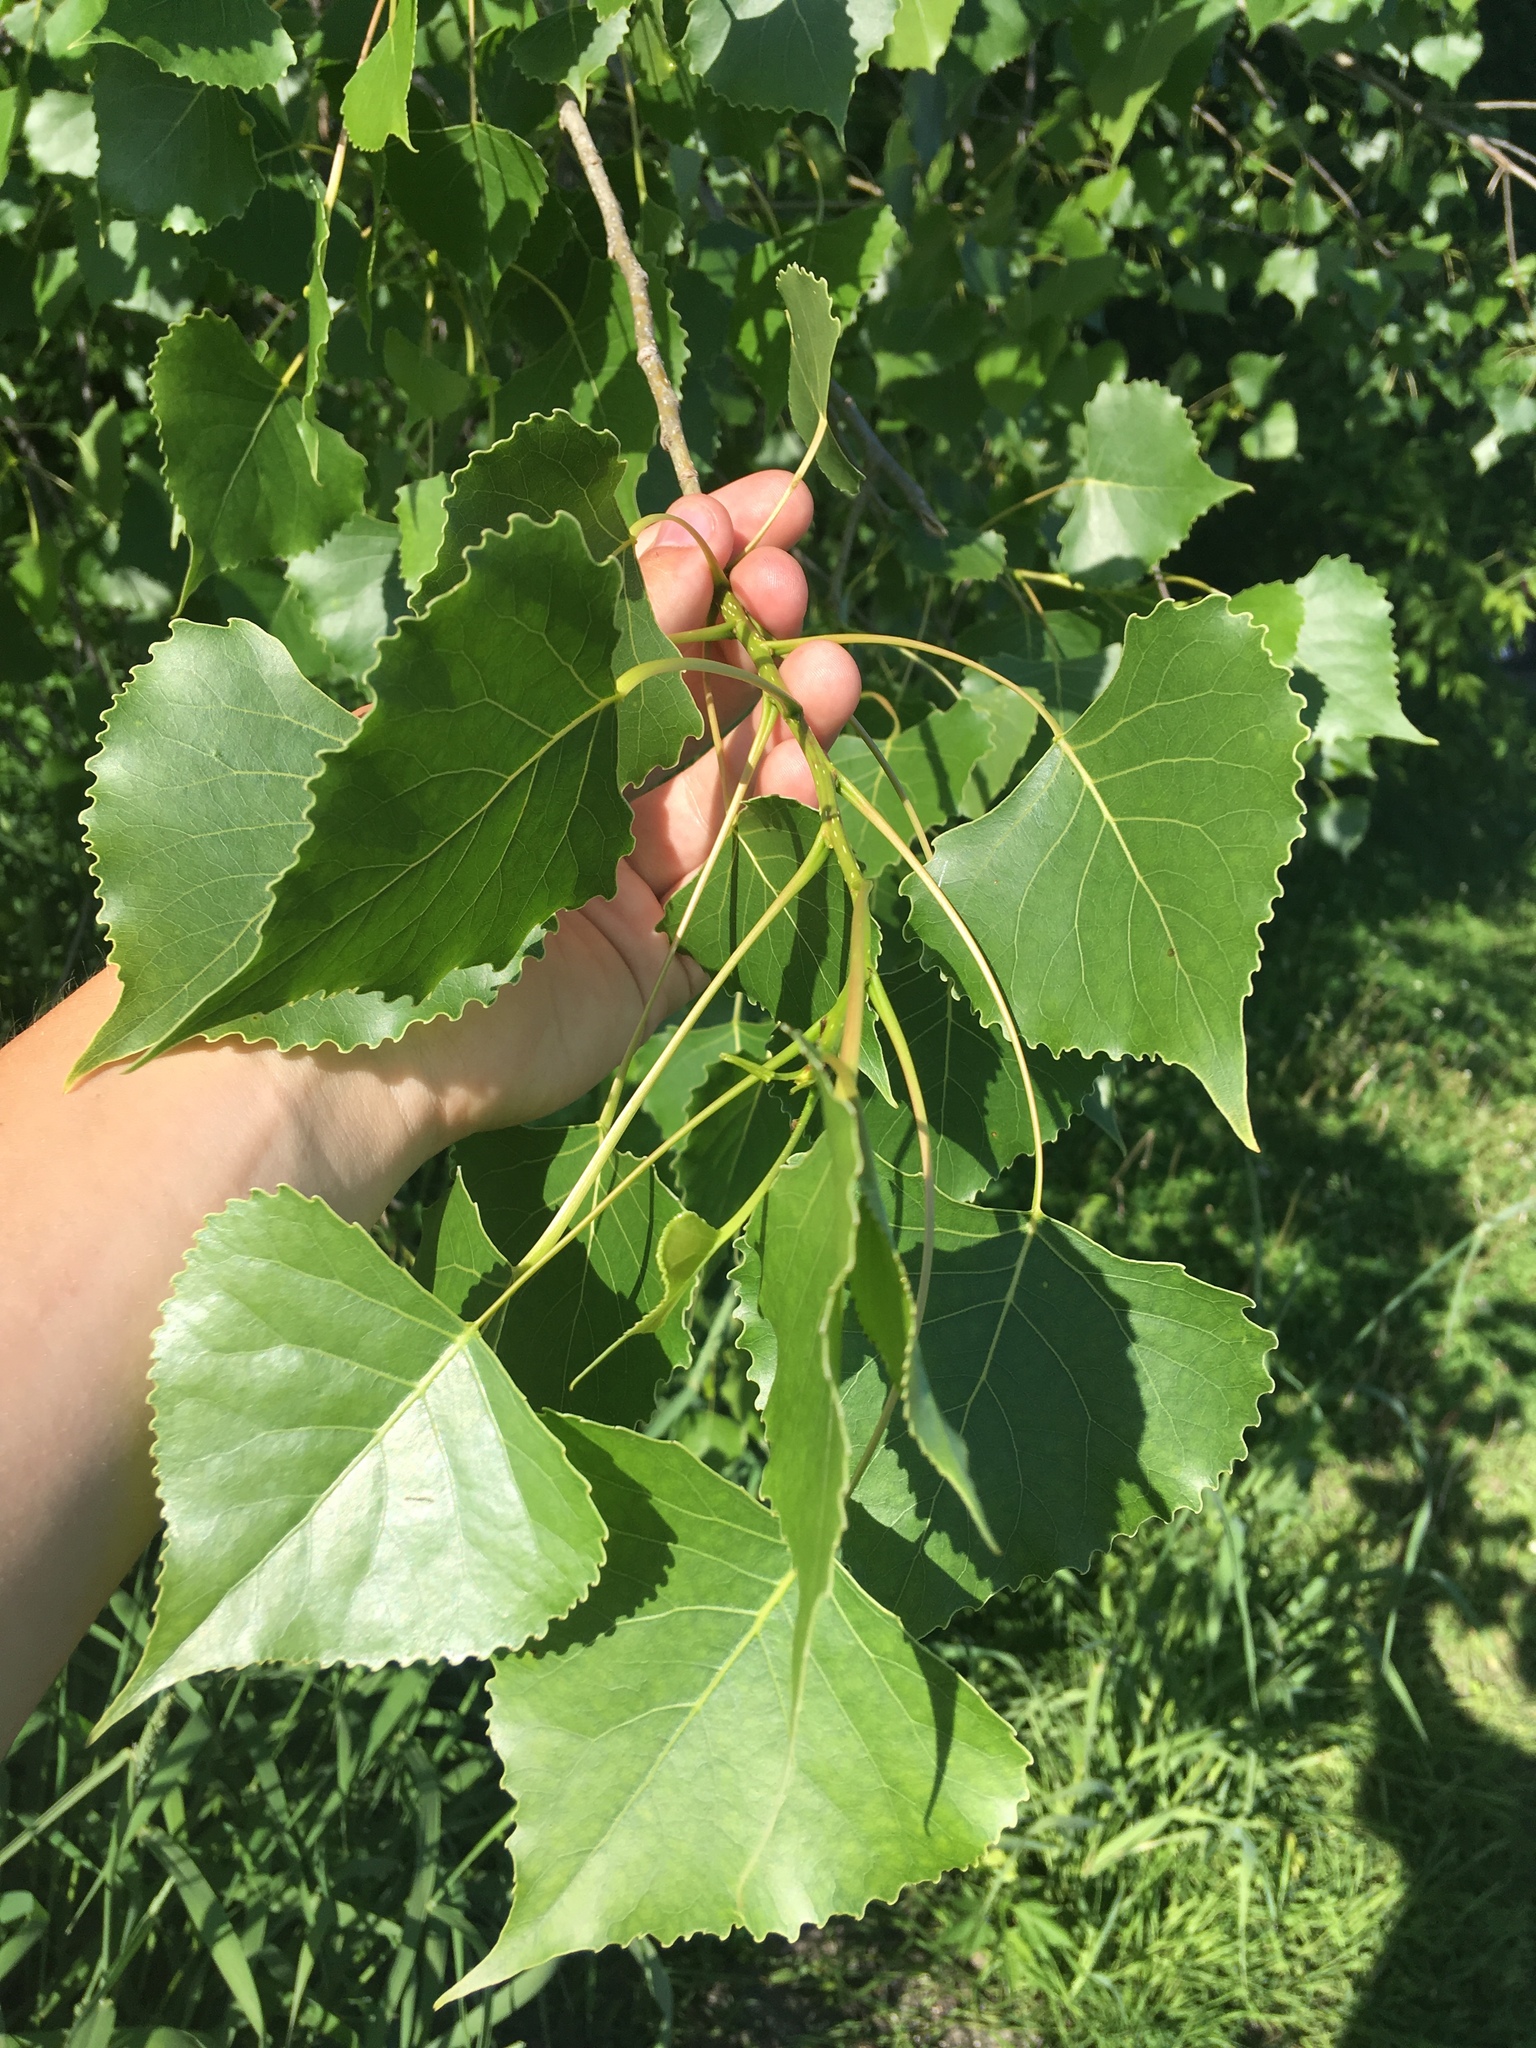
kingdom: Plantae
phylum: Tracheophyta
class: Magnoliopsida
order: Malpighiales
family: Salicaceae
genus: Populus
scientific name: Populus deltoides
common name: Eastern cottonwood
